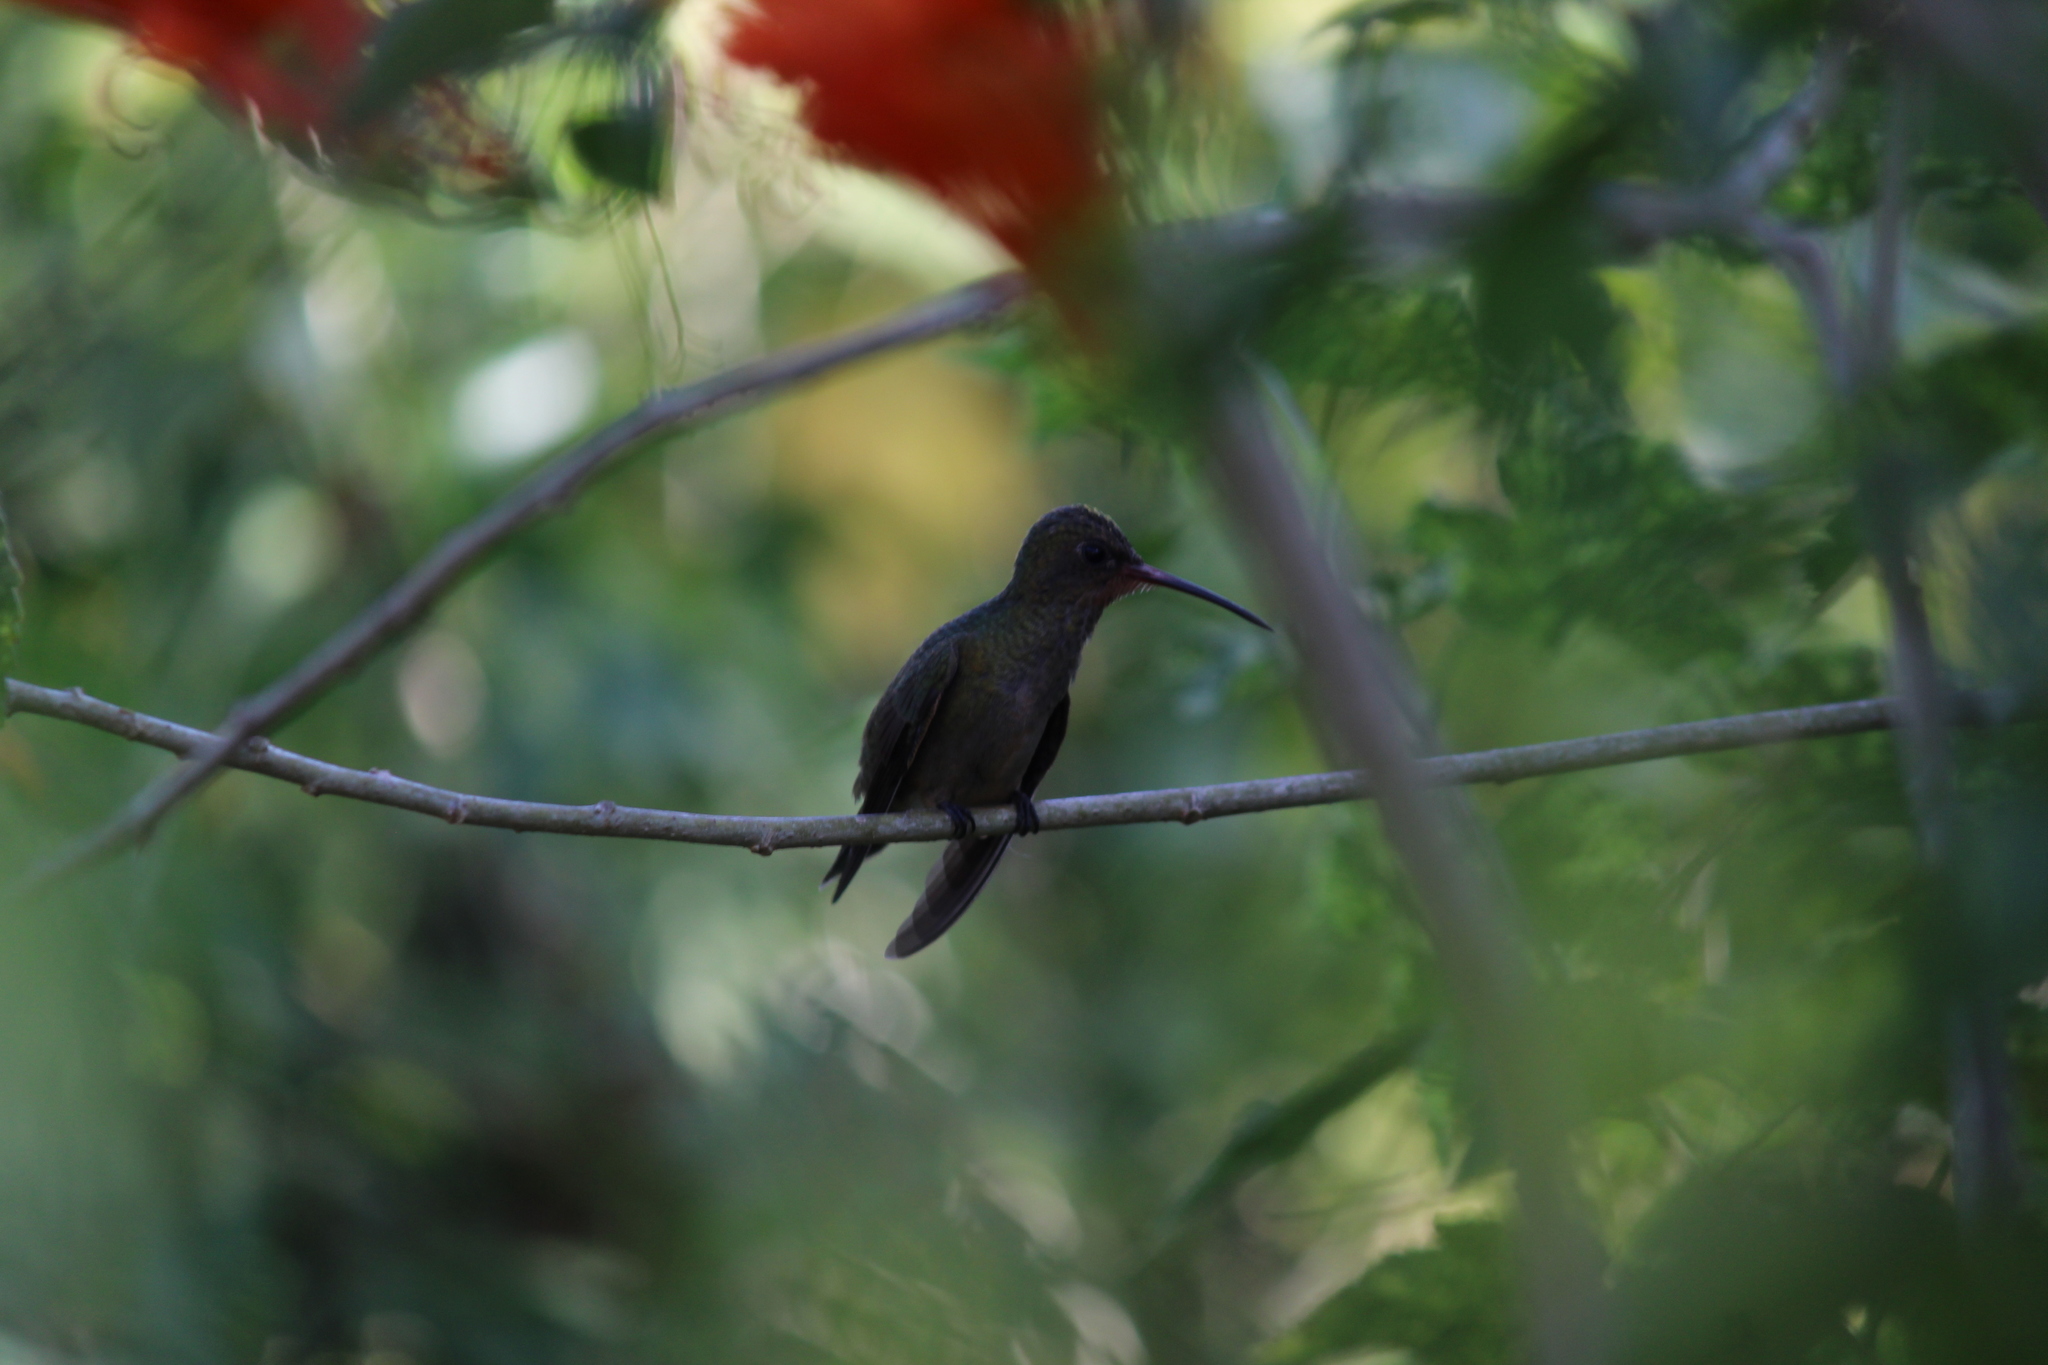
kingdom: Animalia
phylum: Chordata
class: Aves
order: Apodiformes
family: Trochilidae
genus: Hylocharis
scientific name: Hylocharis chrysura
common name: Gilded sapphire
